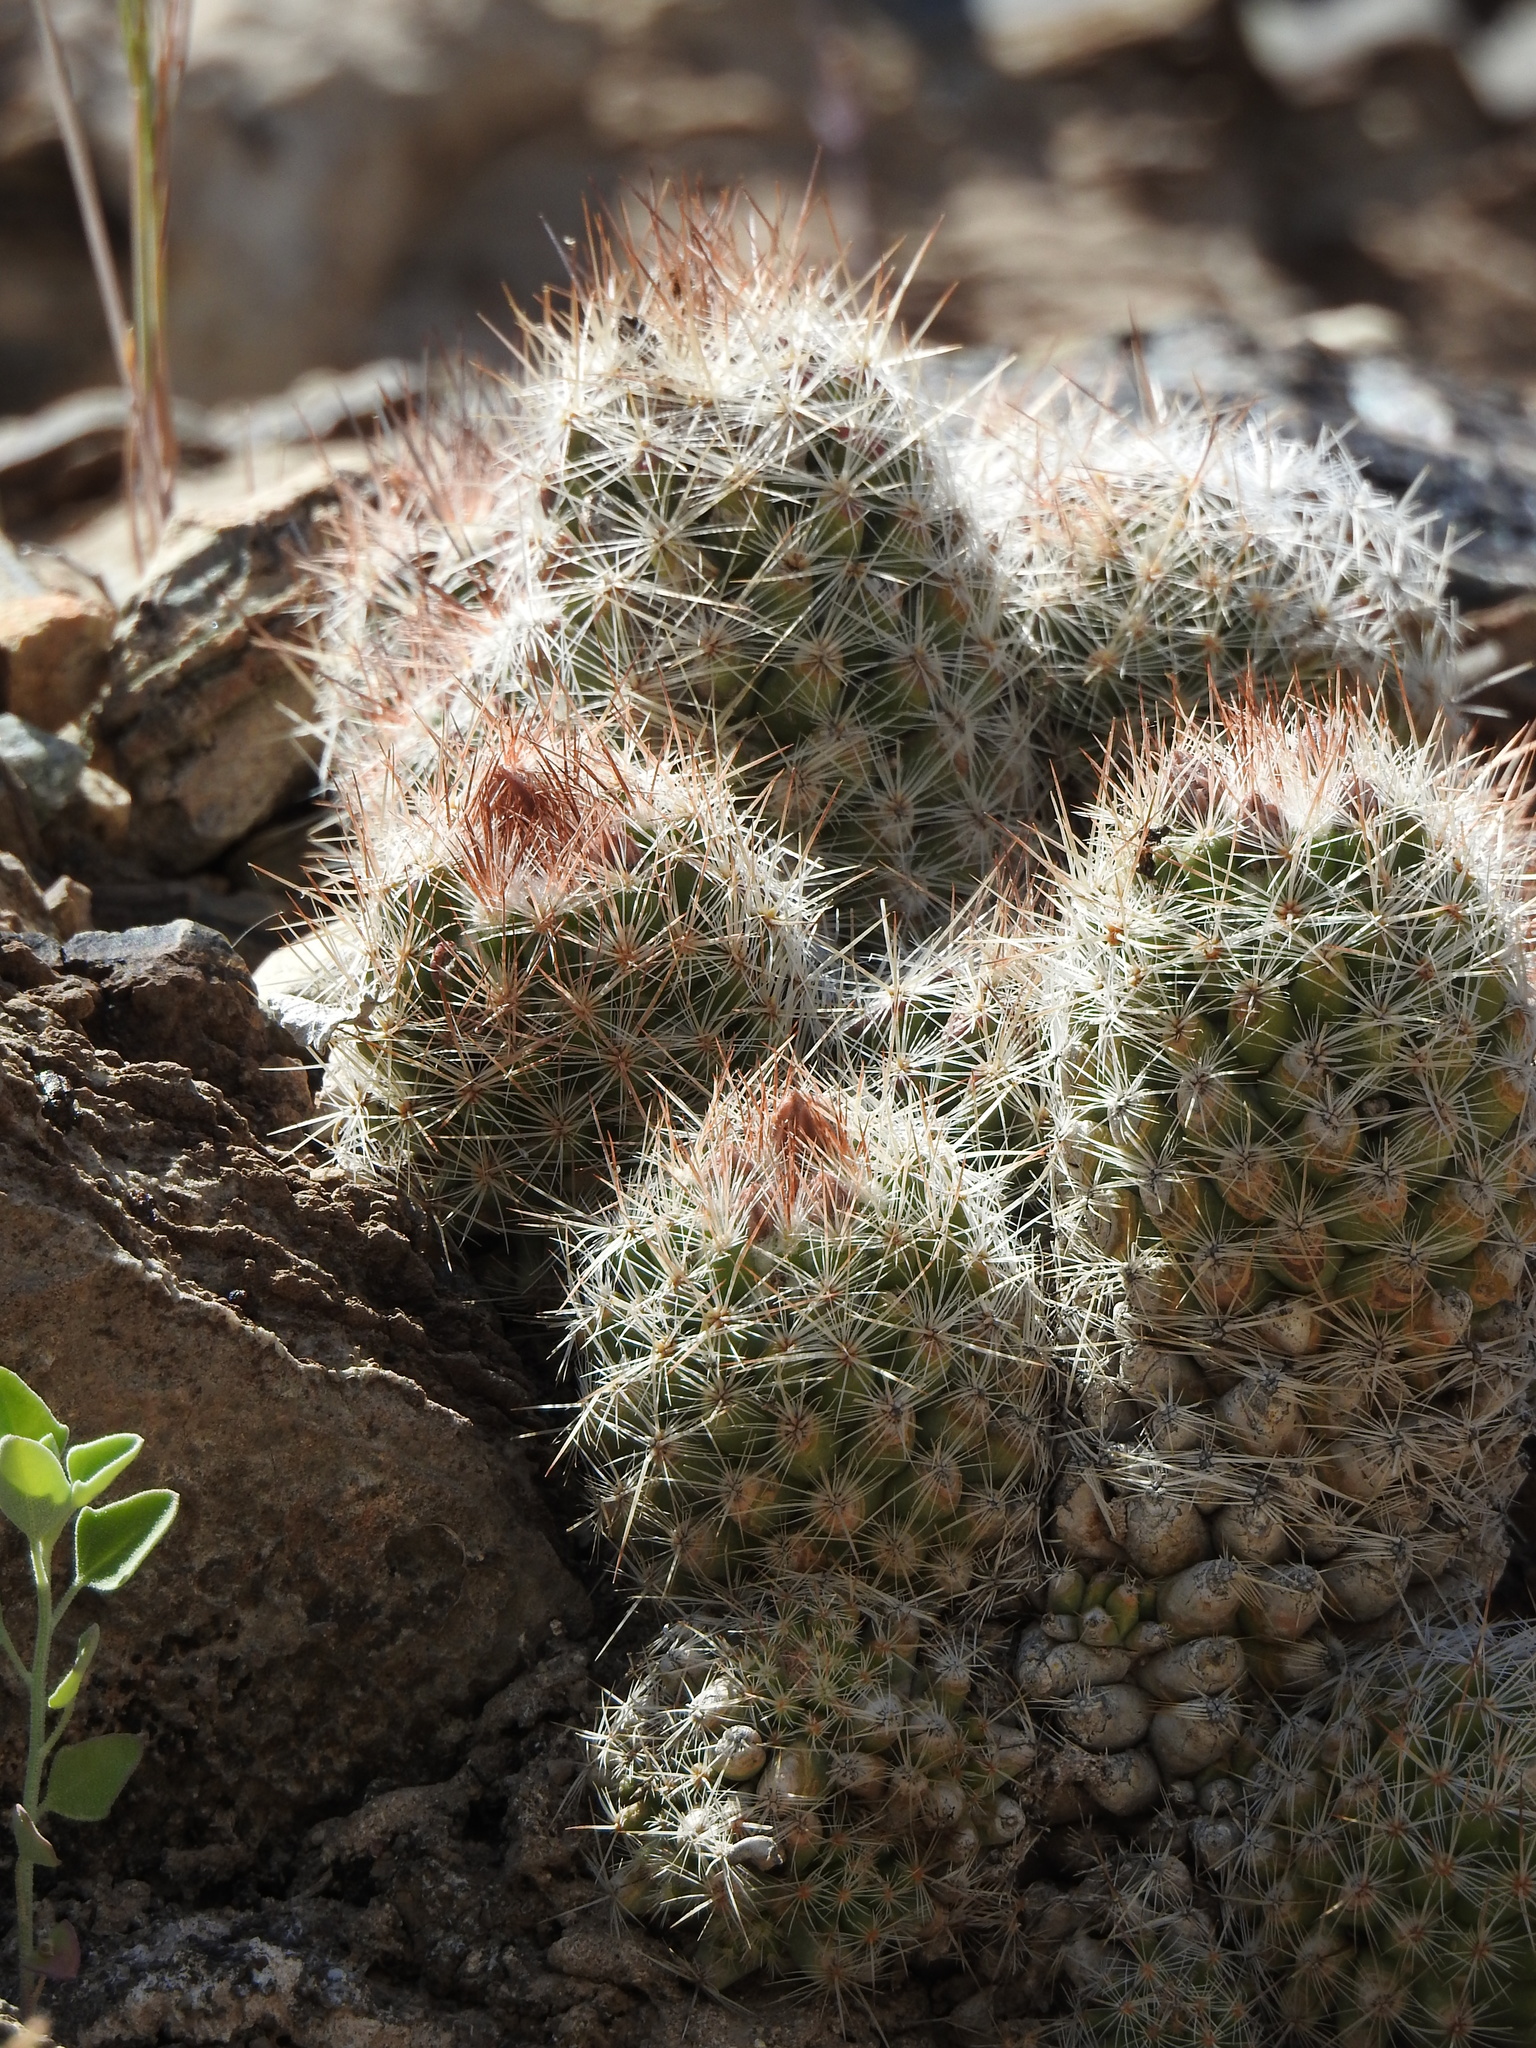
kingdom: Plantae
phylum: Tracheophyta
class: Magnoliopsida
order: Caryophyllales
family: Cactaceae
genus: Pelecyphora
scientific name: Pelecyphora tuberculosa
